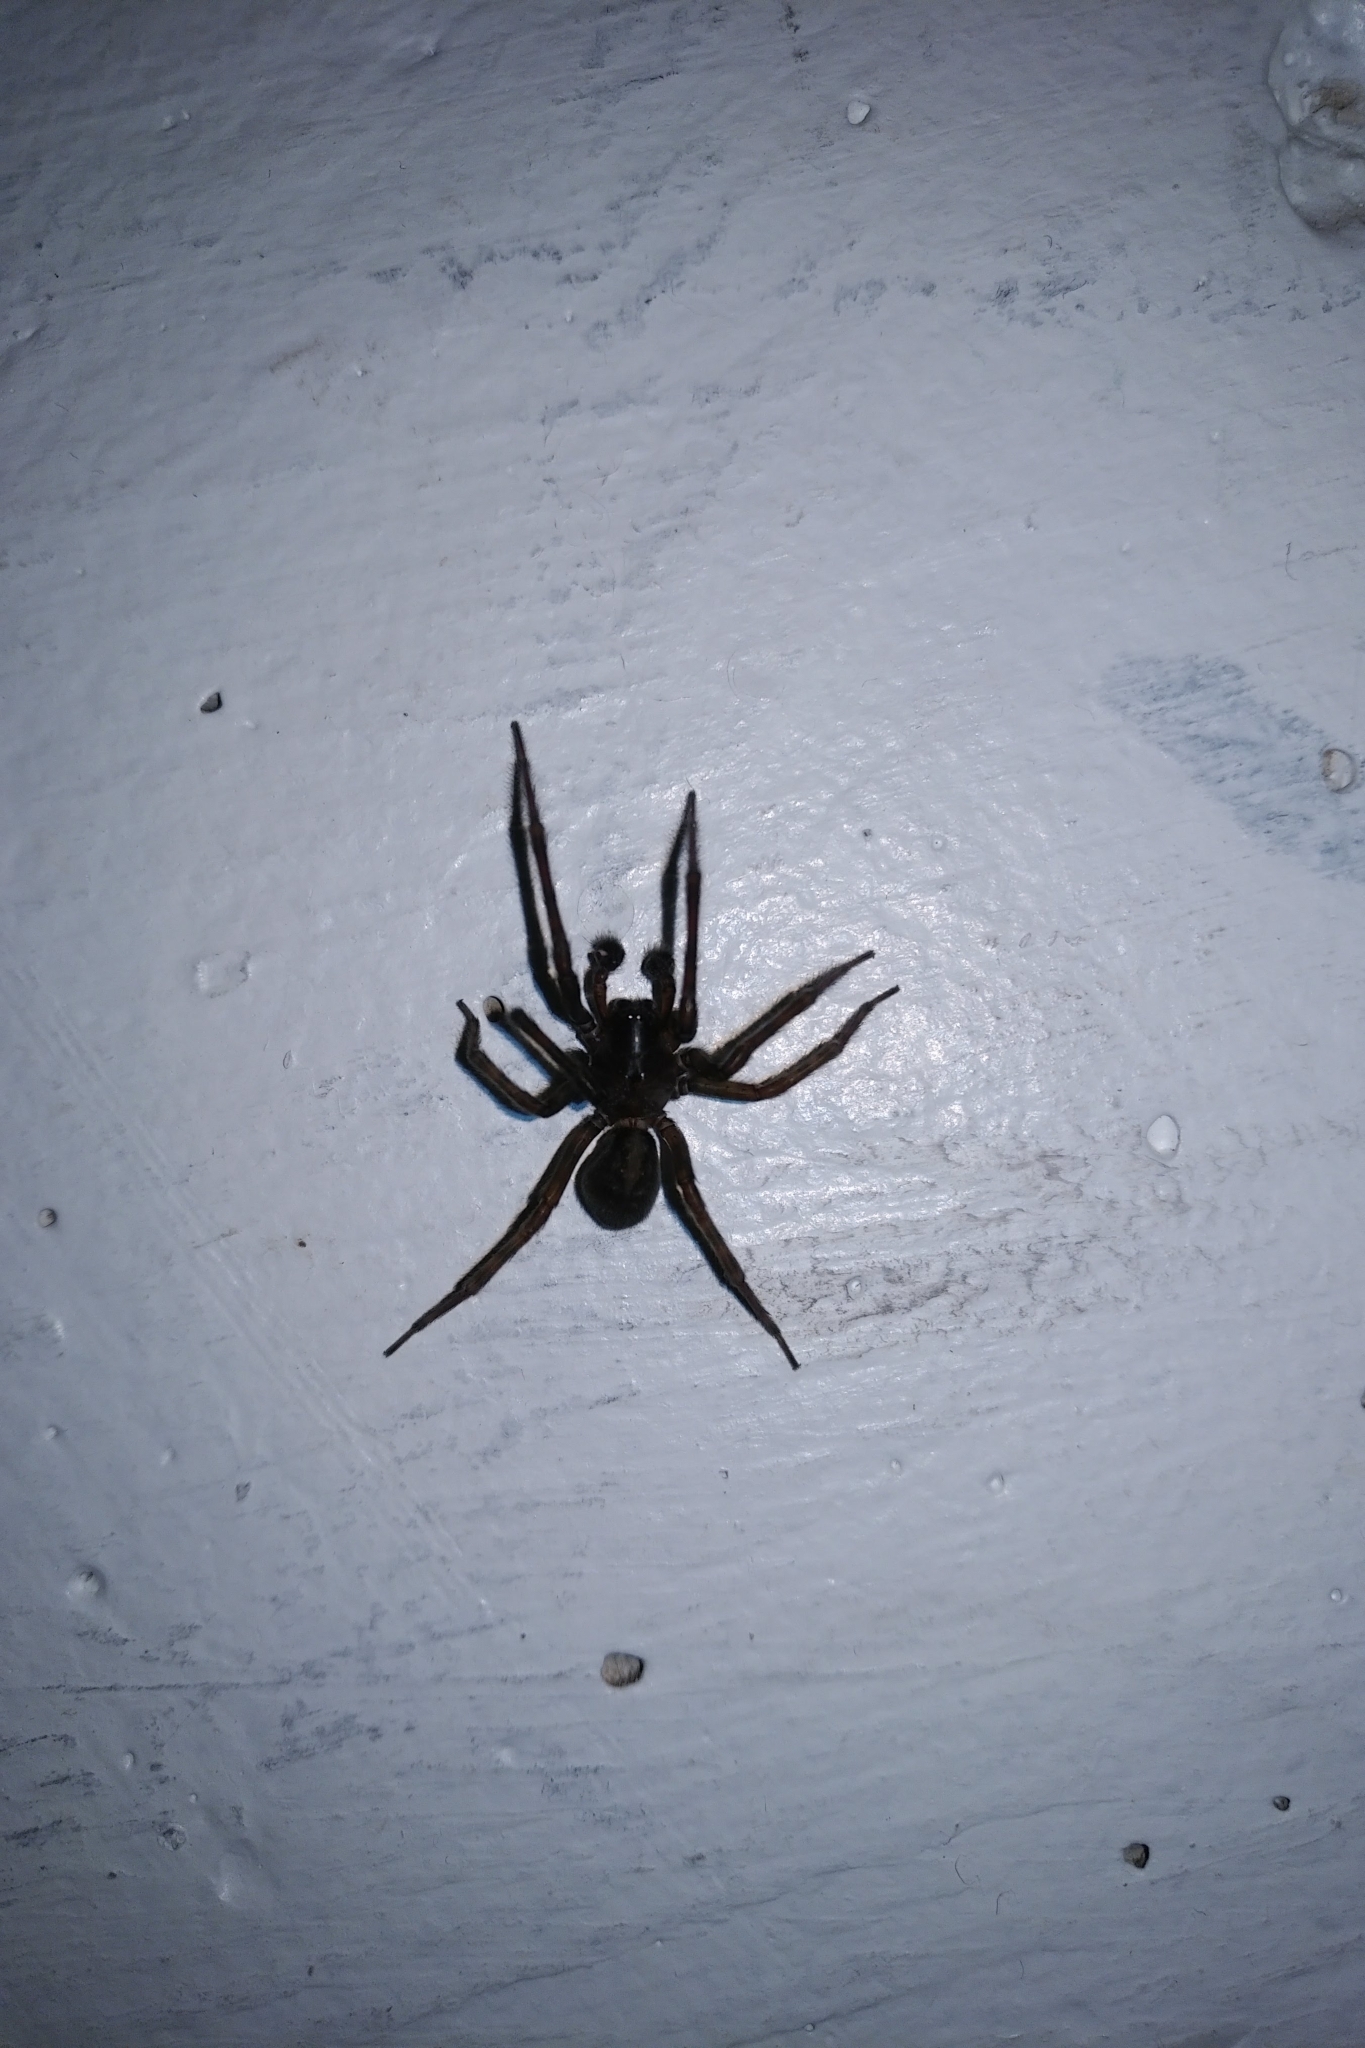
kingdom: Animalia
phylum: Arthropoda
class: Arachnida
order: Araneae
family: Amaurobiidae
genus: Amaurobius
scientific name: Amaurobius ferox
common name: Black laceweaver
